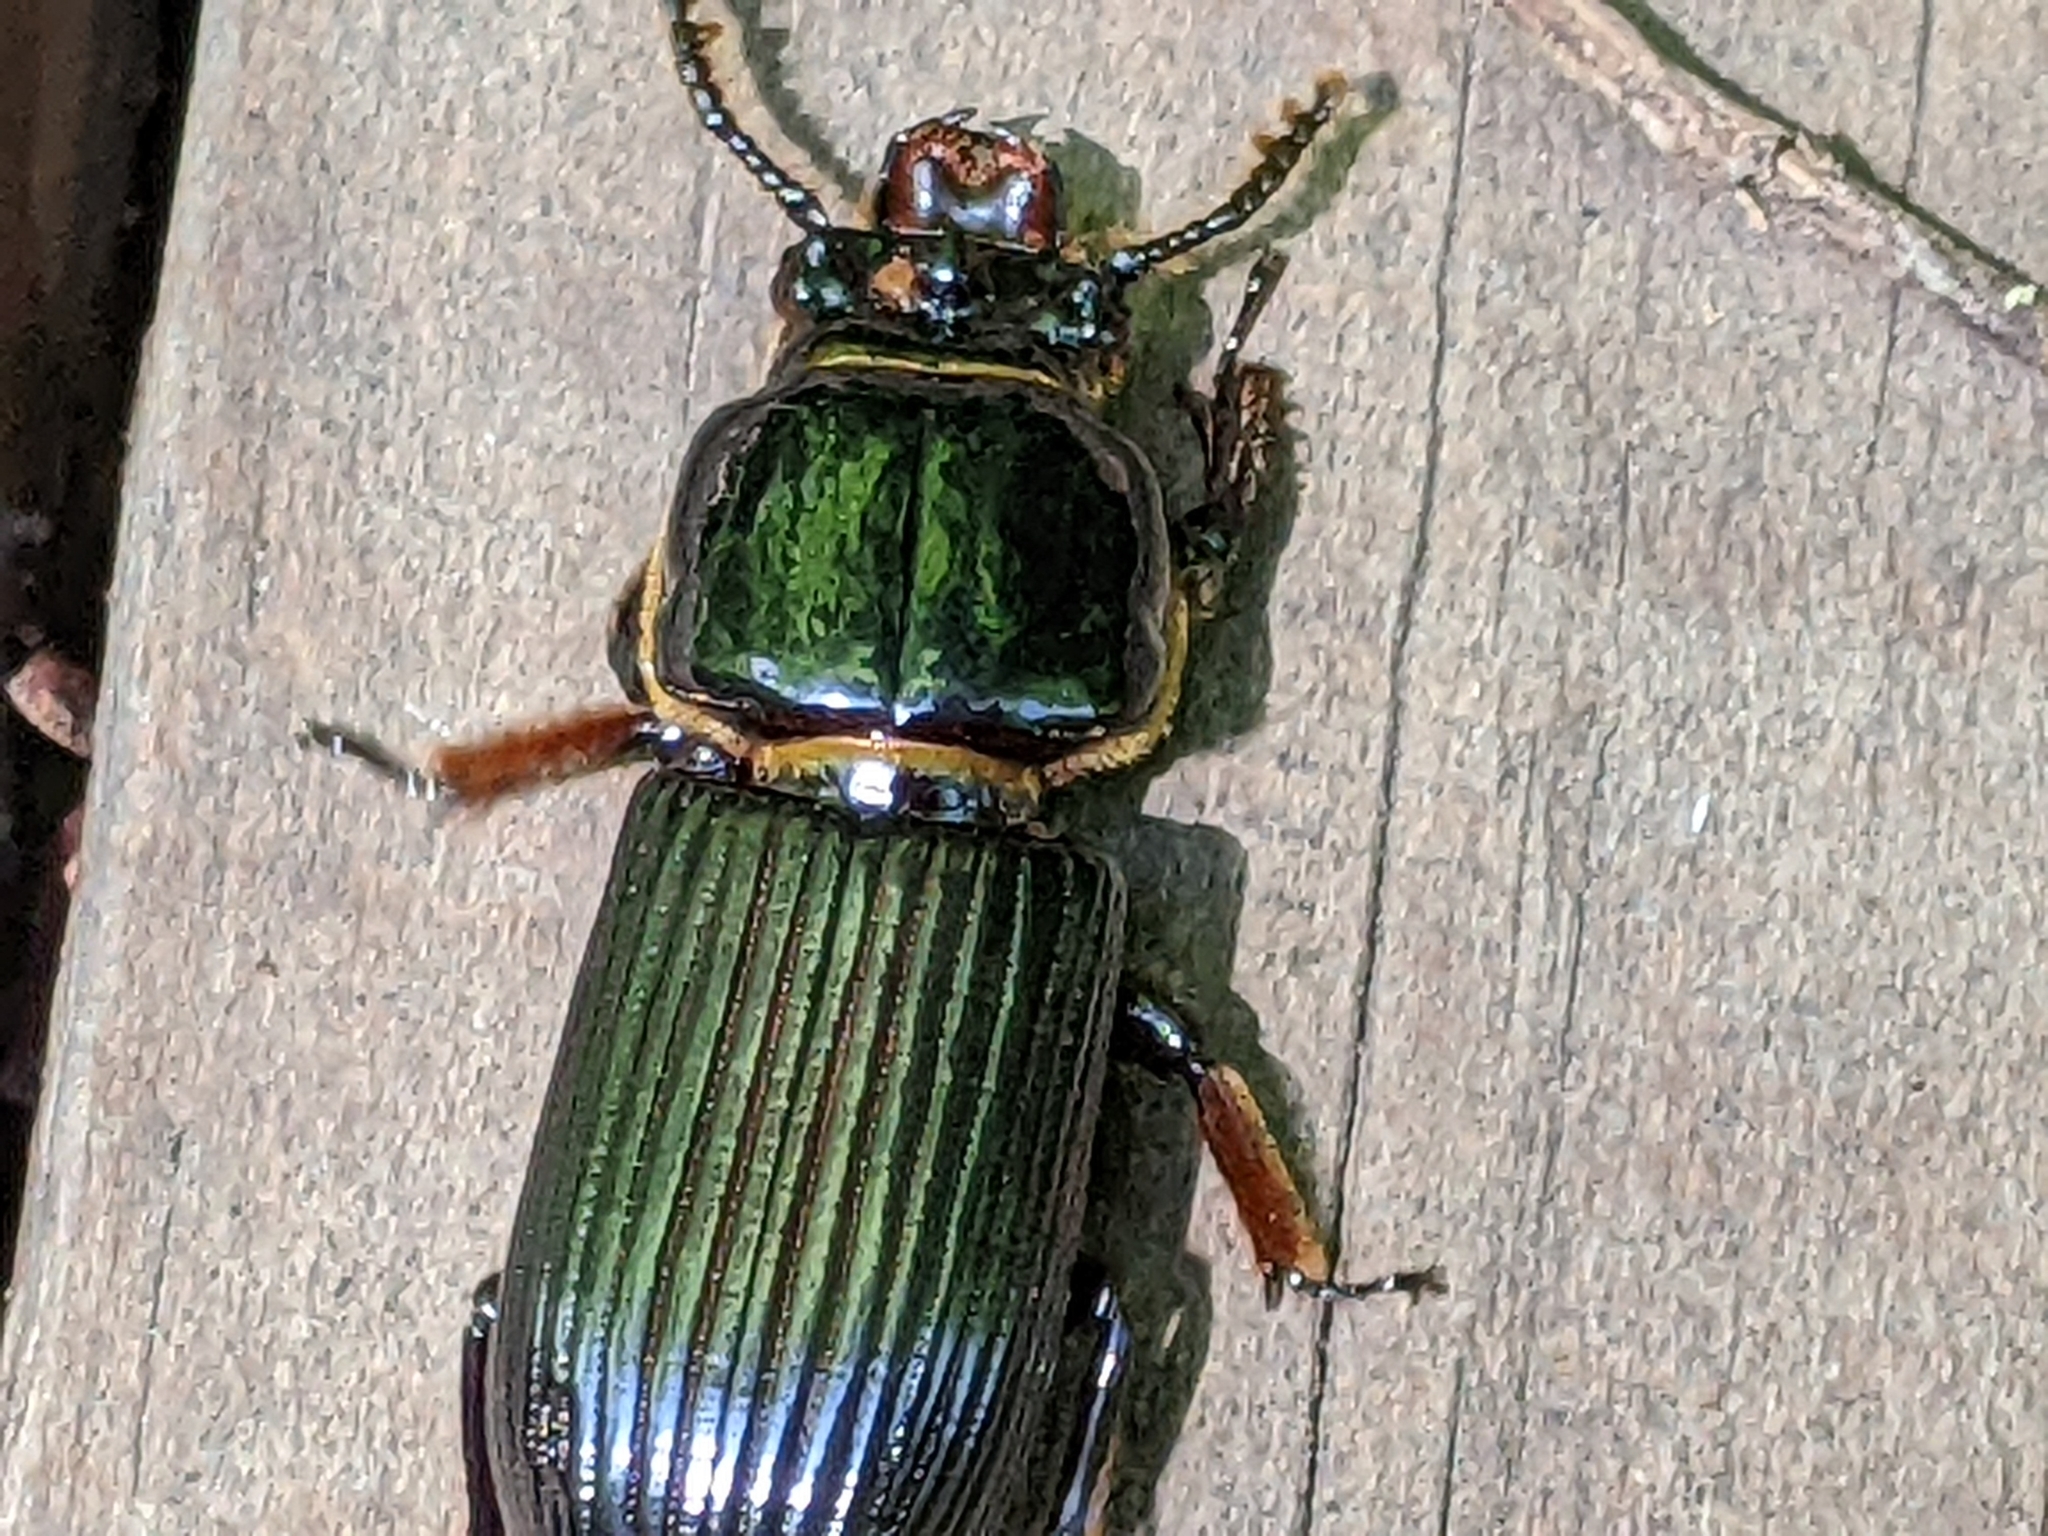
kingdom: Animalia
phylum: Arthropoda
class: Insecta
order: Coleoptera
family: Passalidae
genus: Odontotaenius
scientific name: Odontotaenius disjunctus
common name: Patent leather beetle
